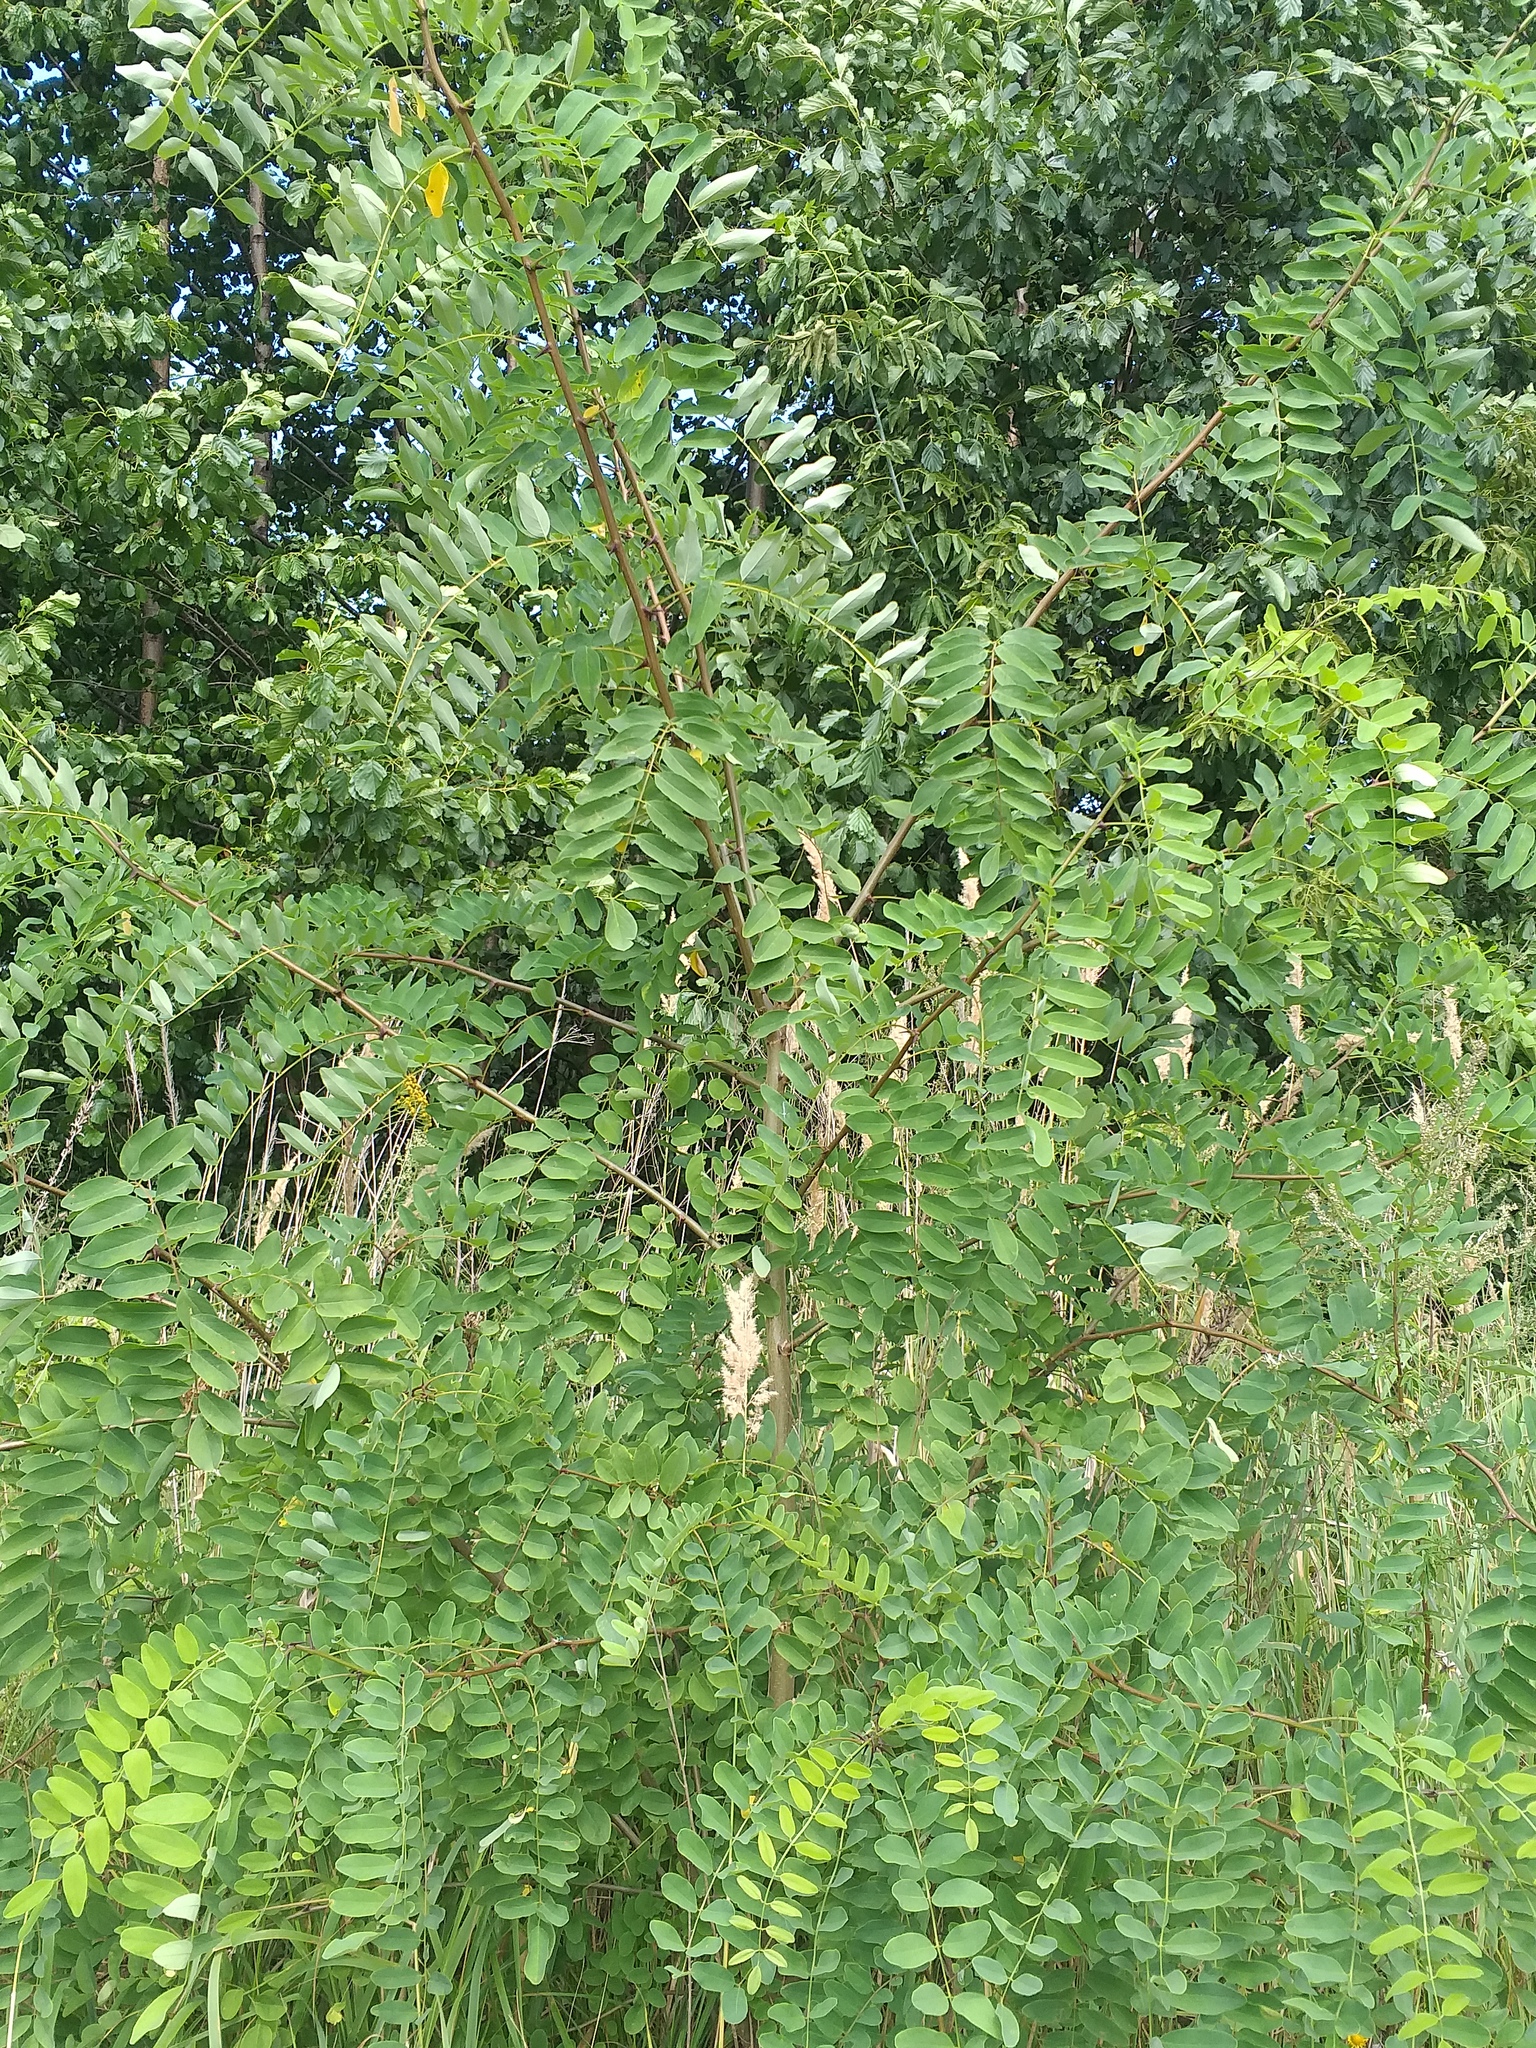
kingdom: Plantae
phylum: Tracheophyta
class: Magnoliopsida
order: Fabales
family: Fabaceae
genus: Robinia
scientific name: Robinia pseudoacacia
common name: Black locust
